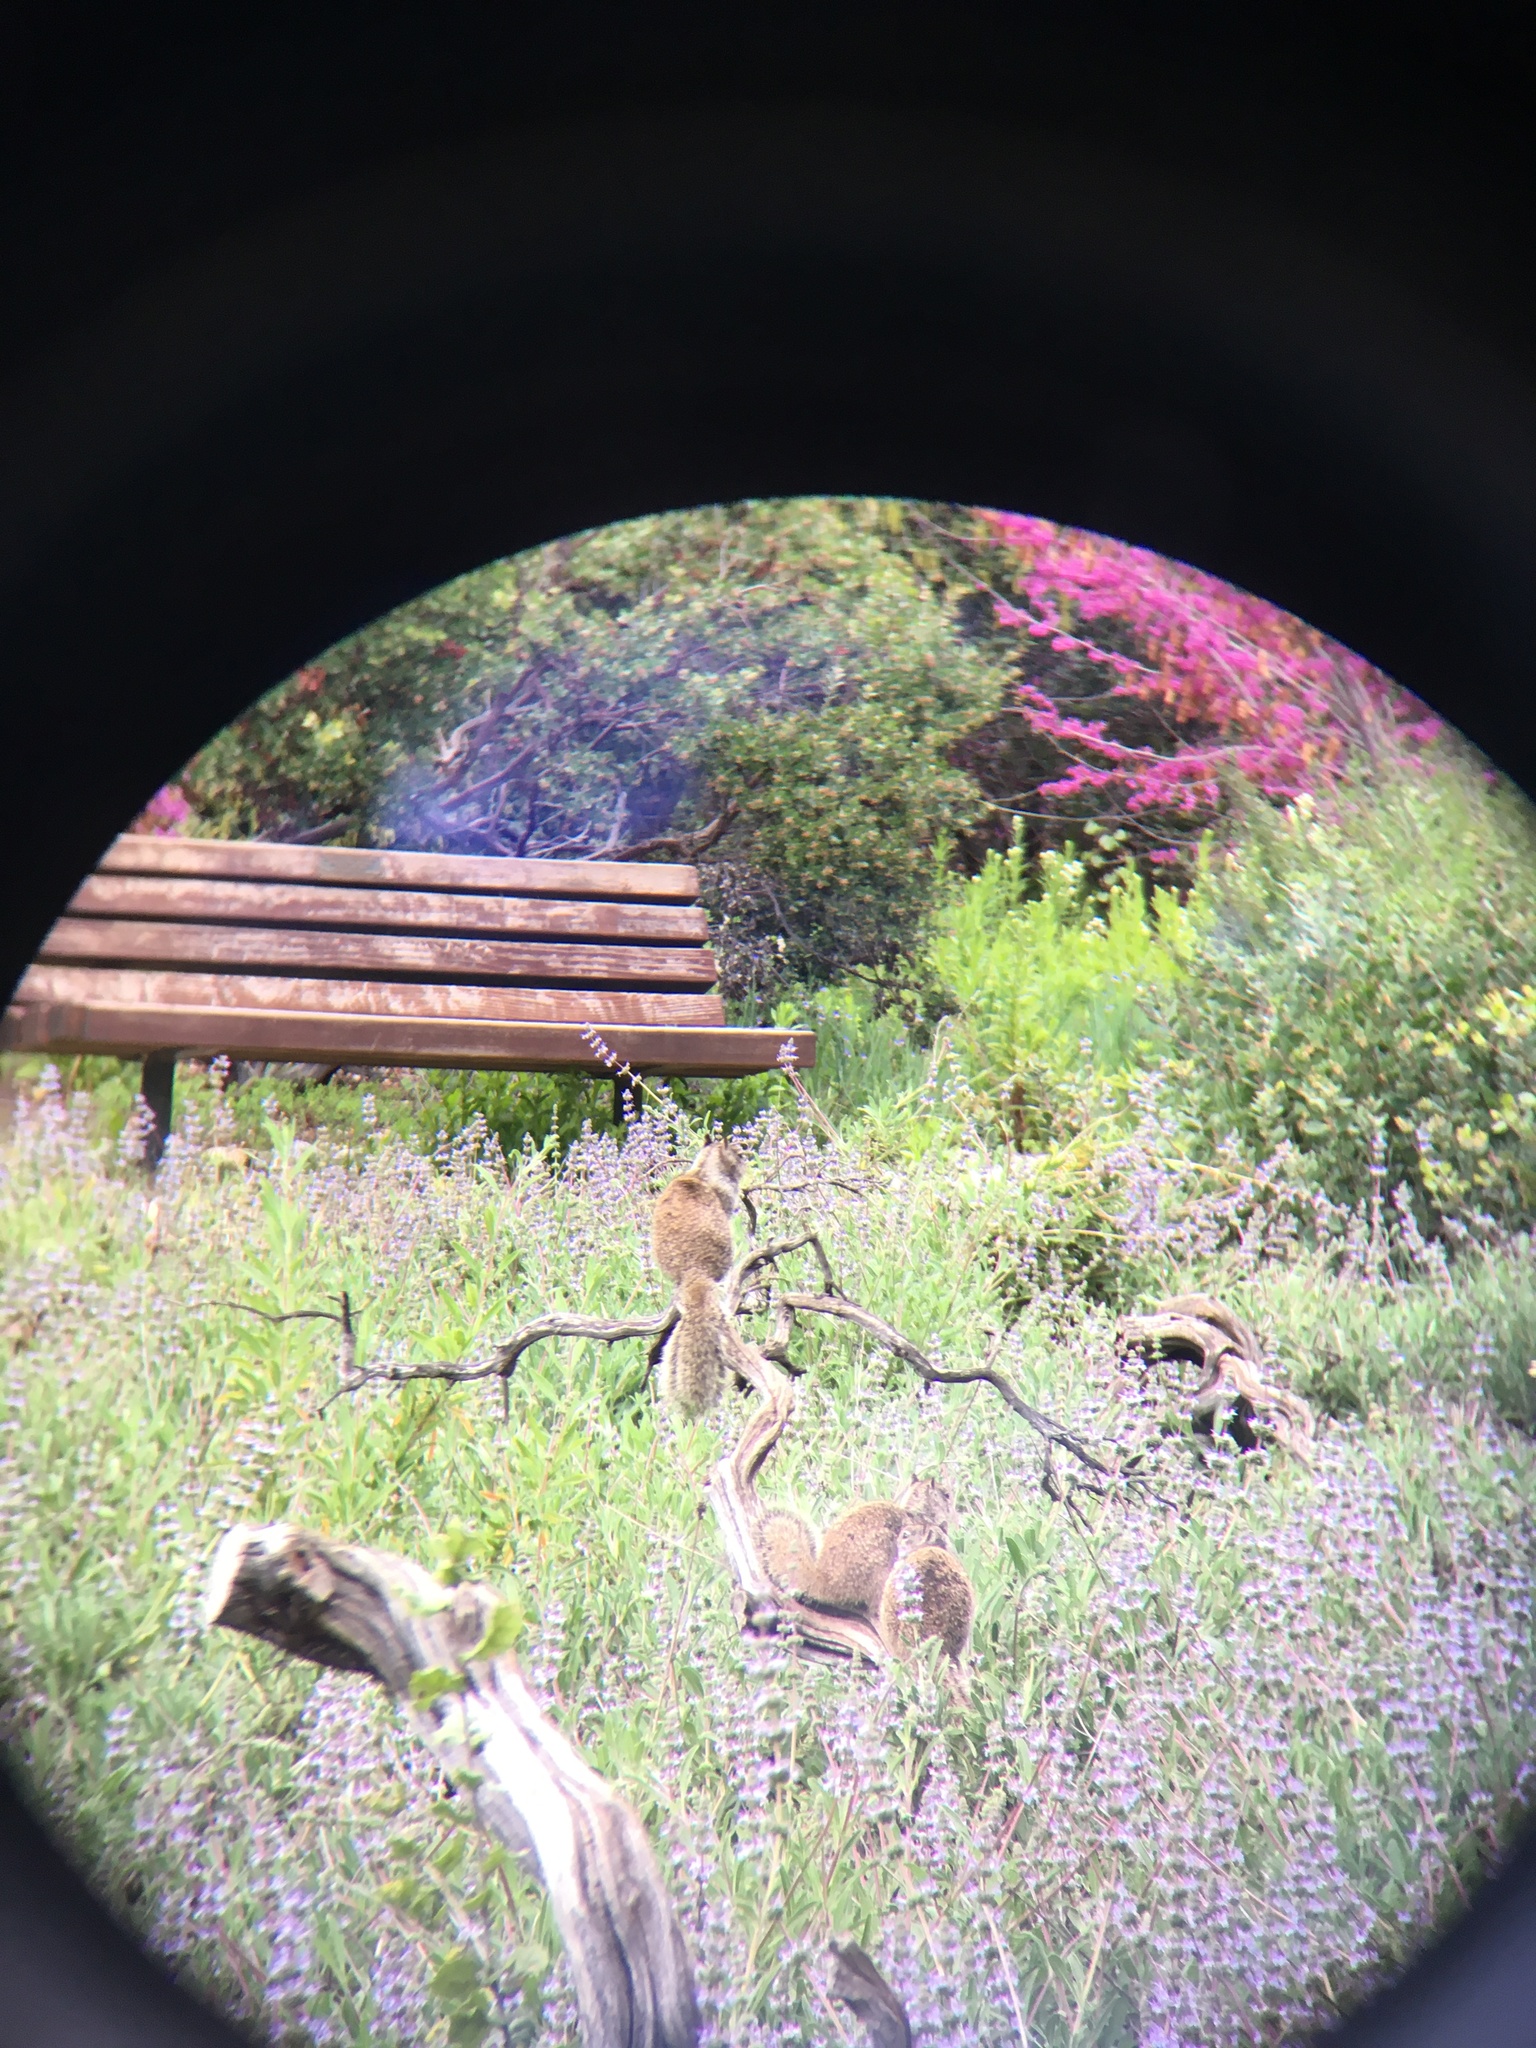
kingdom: Animalia
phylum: Chordata
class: Mammalia
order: Rodentia
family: Sciuridae
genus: Otospermophilus
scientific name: Otospermophilus beecheyi
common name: California ground squirrel
